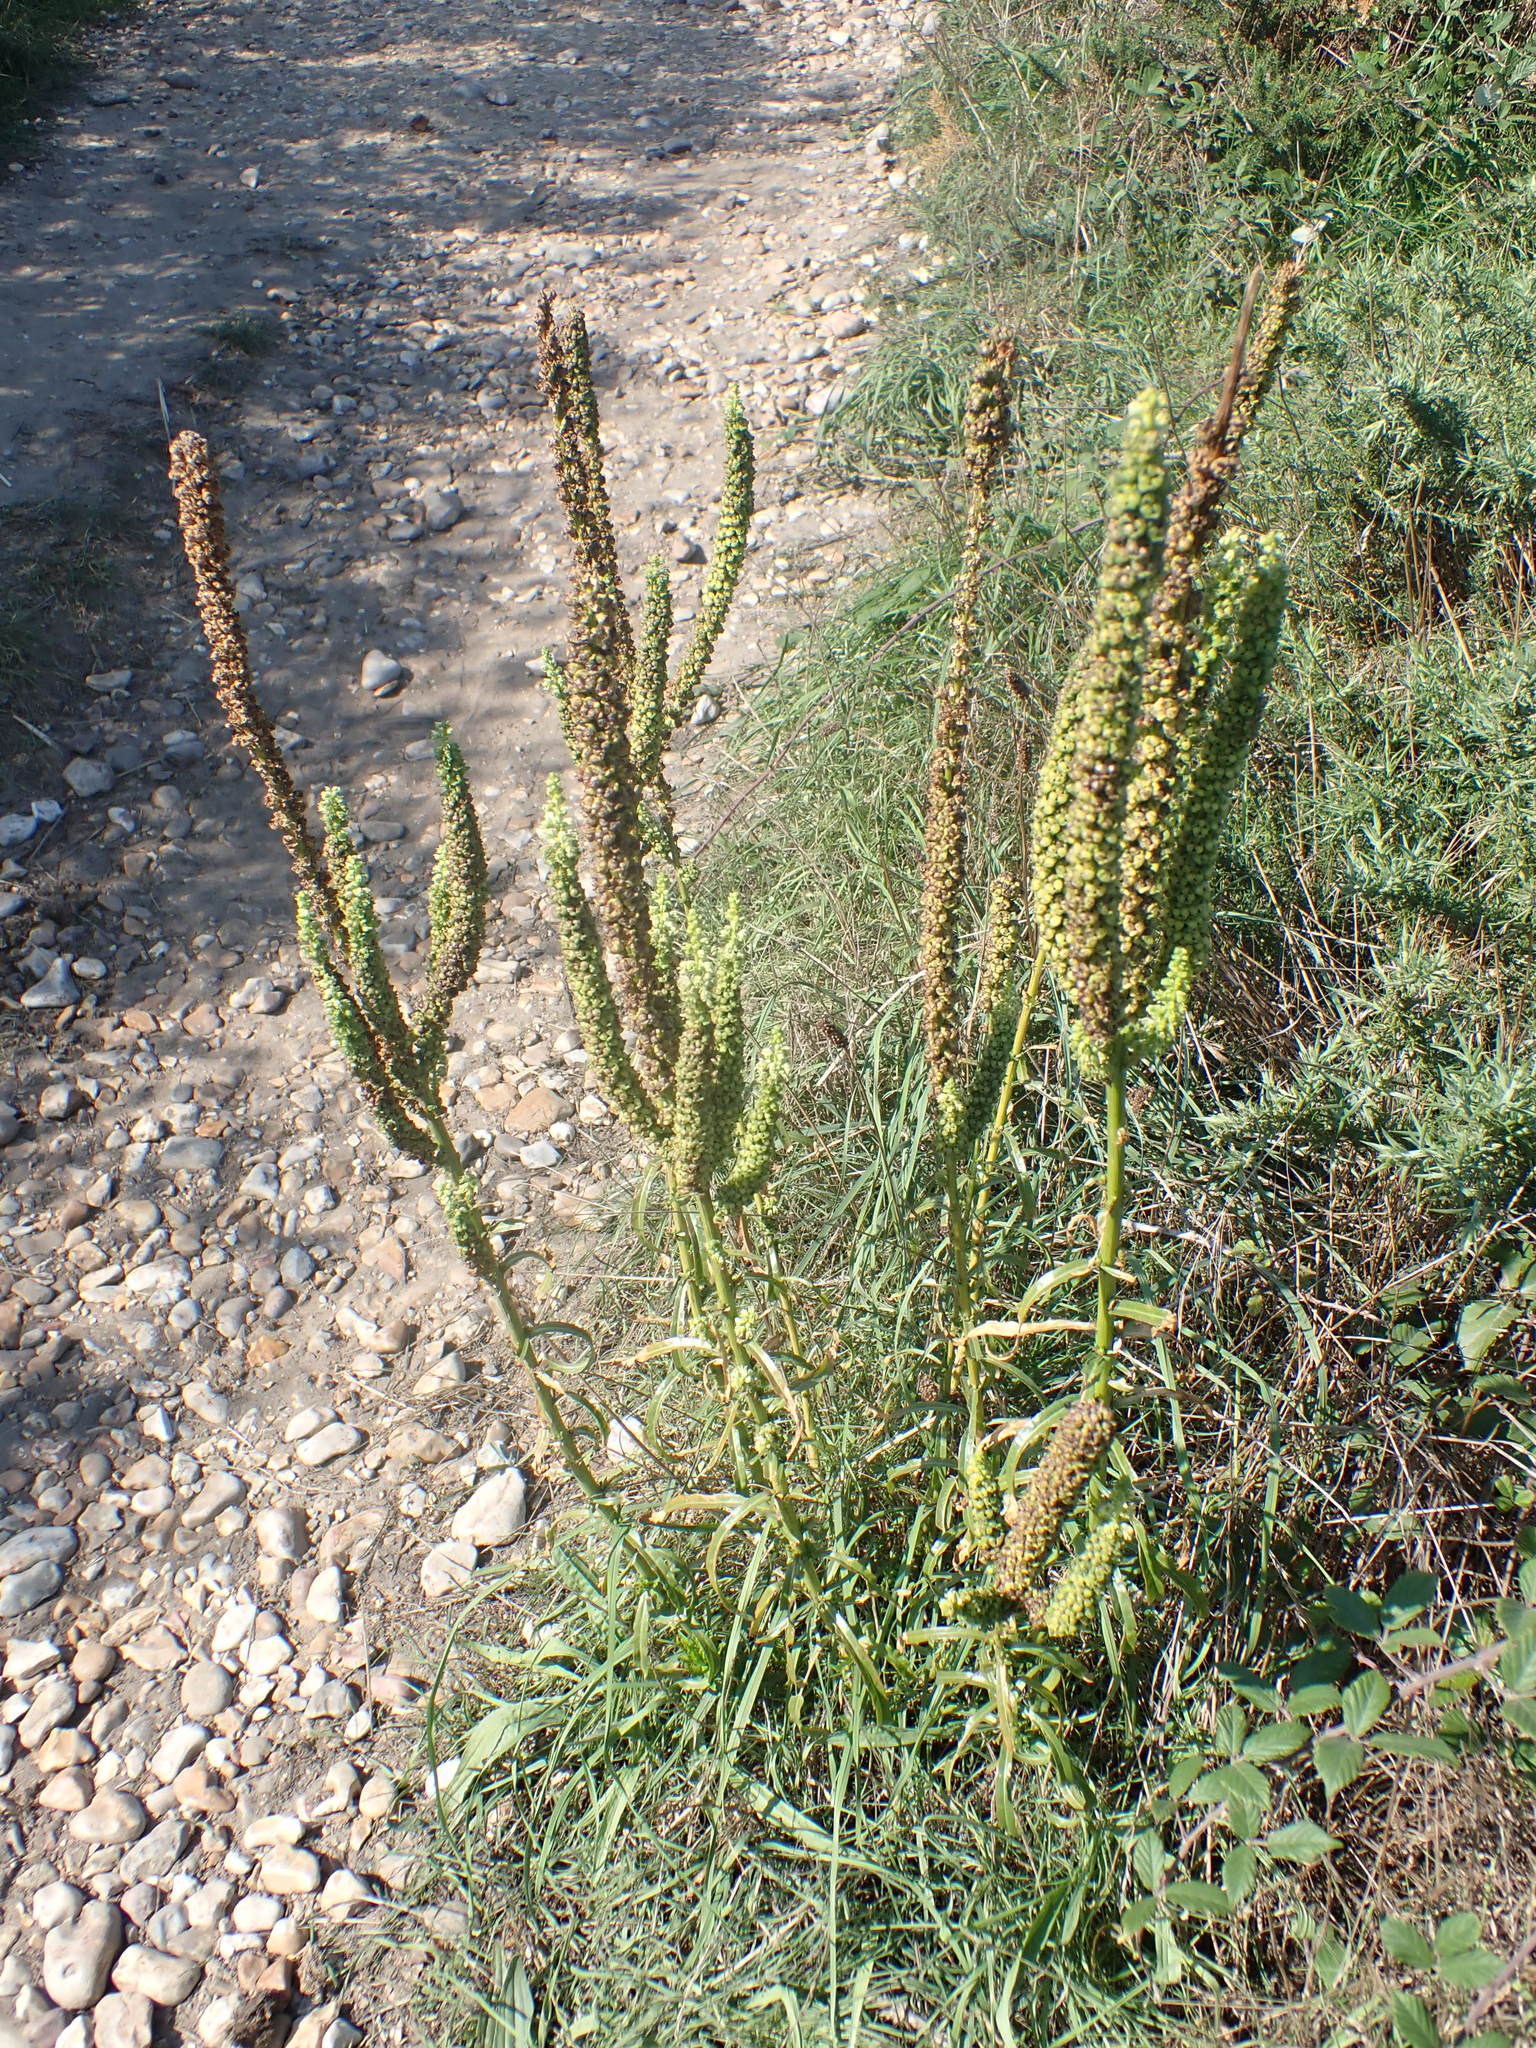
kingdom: Plantae
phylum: Tracheophyta
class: Magnoliopsida
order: Brassicales
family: Resedaceae
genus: Reseda
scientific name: Reseda luteola
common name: Weld
